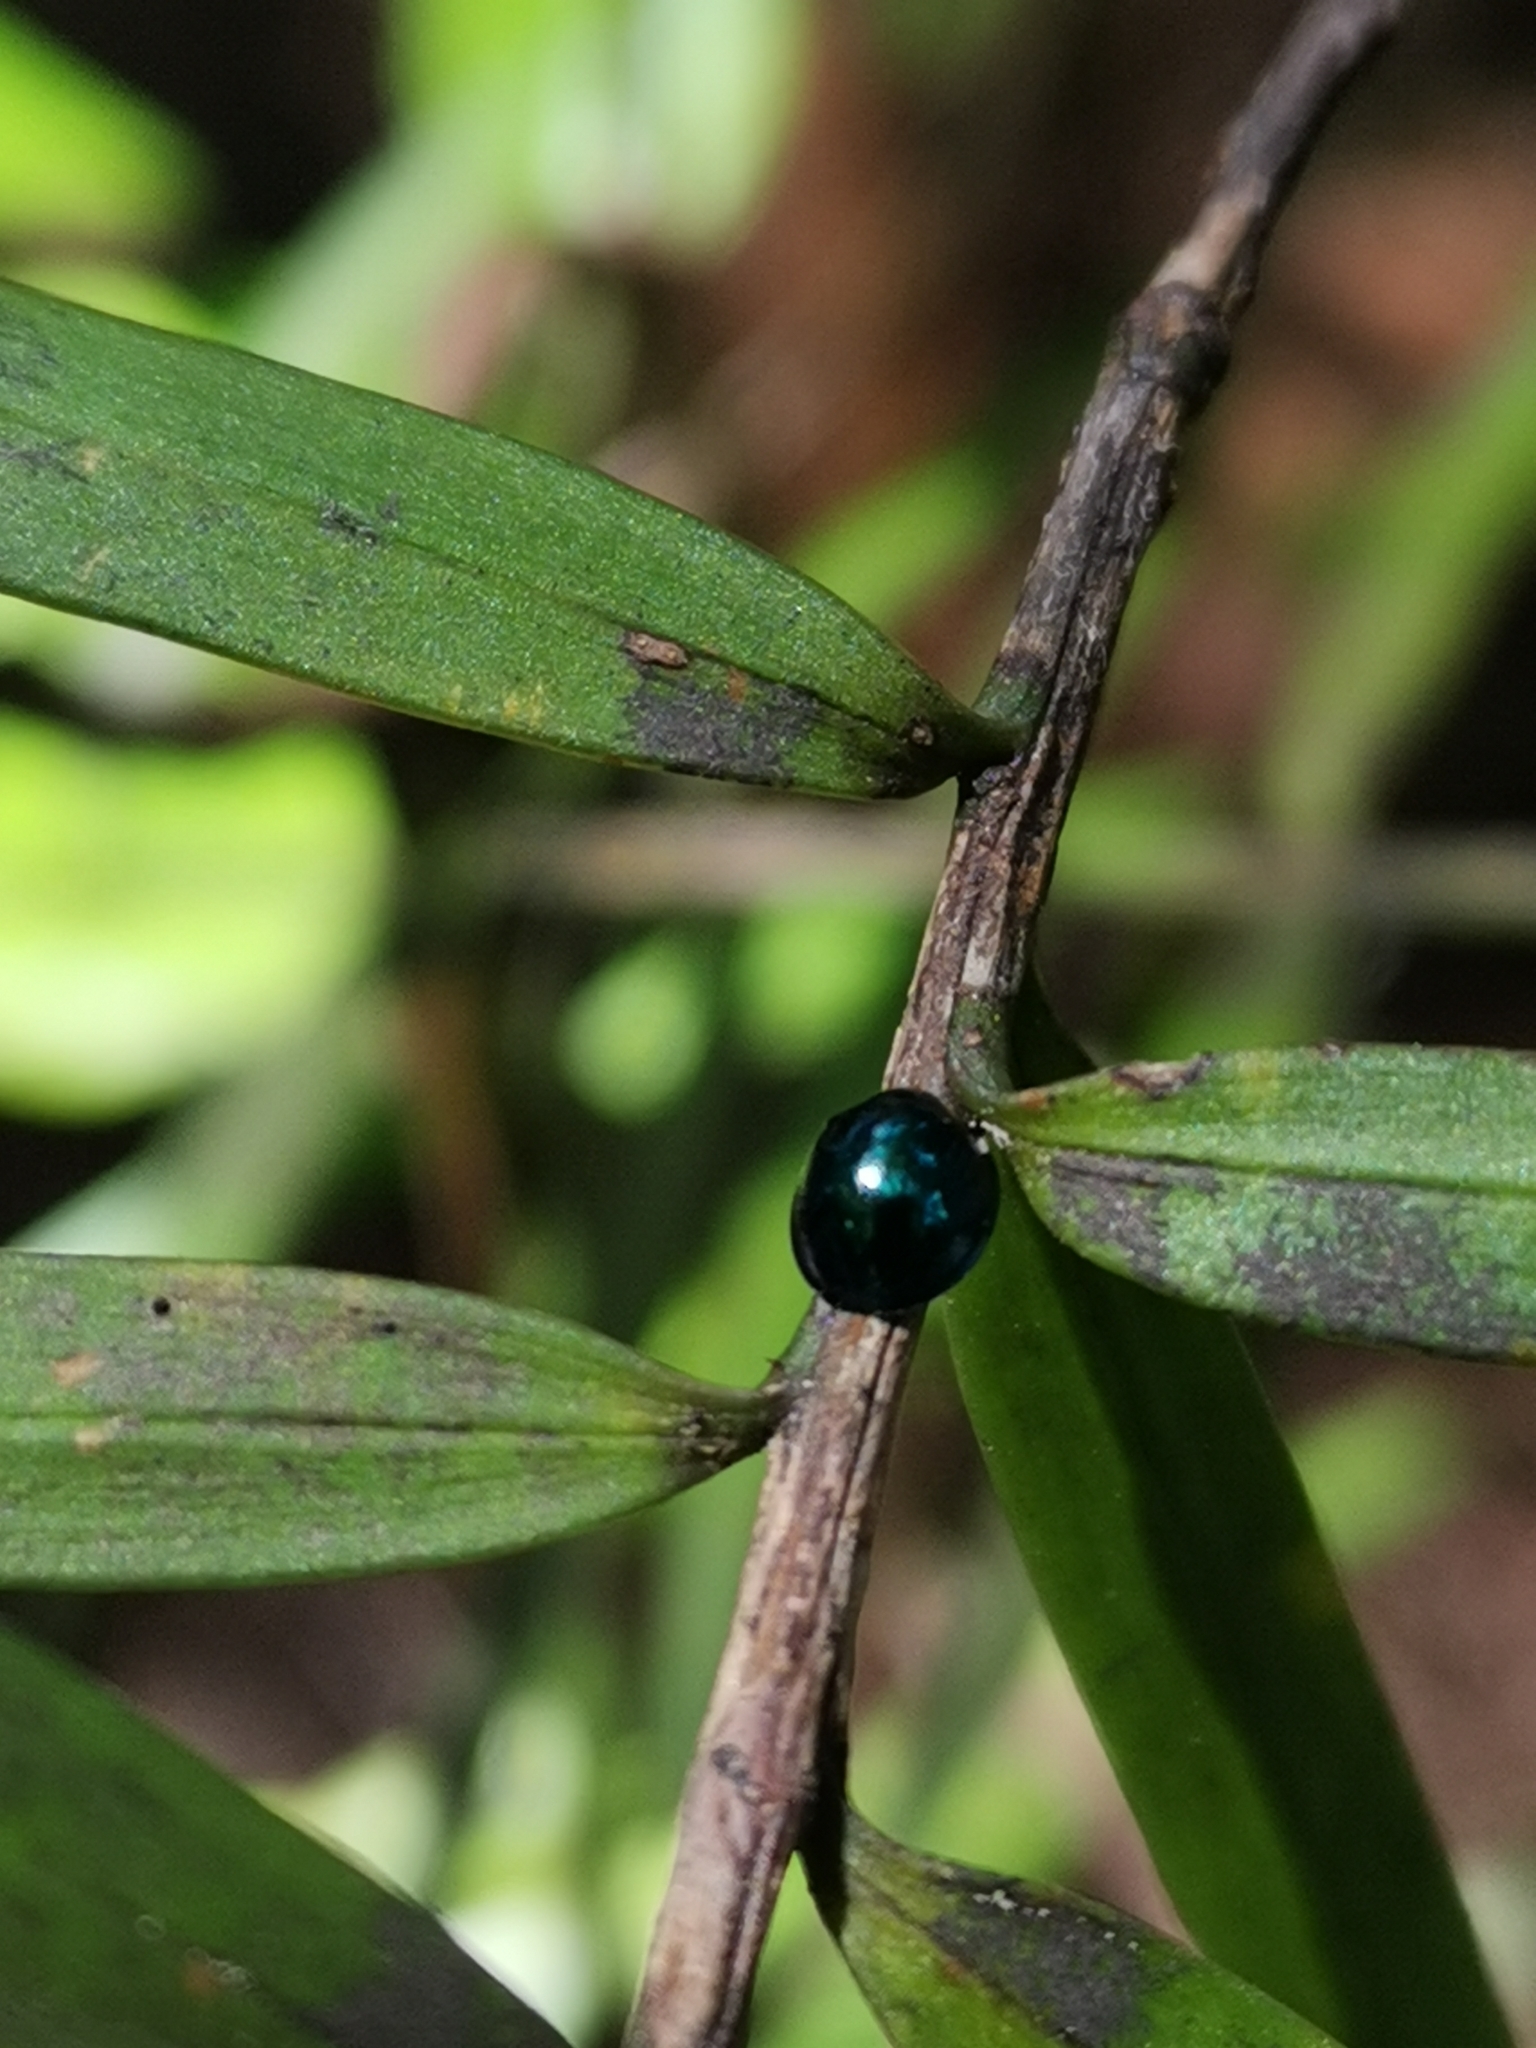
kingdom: Animalia
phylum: Arthropoda
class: Insecta
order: Coleoptera
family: Coccinellidae
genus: Halmus
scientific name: Halmus chalybeus
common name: Steel blue ladybird beetle
